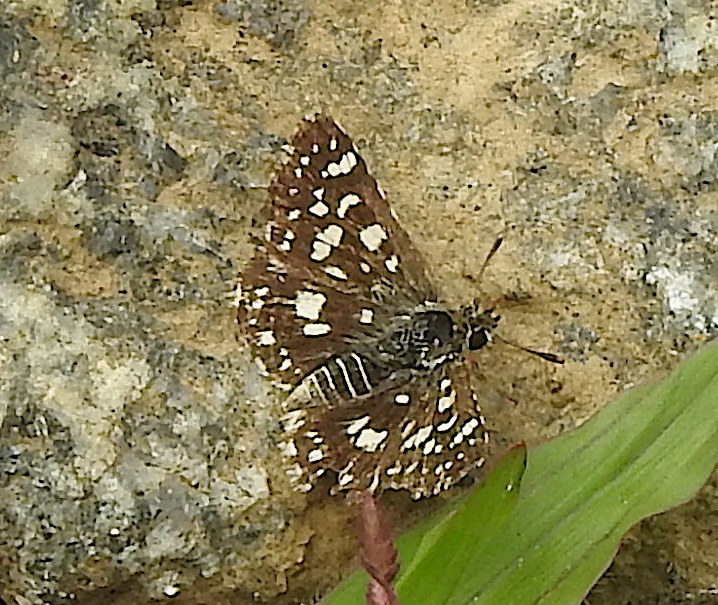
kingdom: Animalia
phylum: Arthropoda
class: Insecta
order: Lepidoptera
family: Hesperiidae
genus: Spialia
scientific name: Spialia galba
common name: Indian skipper
